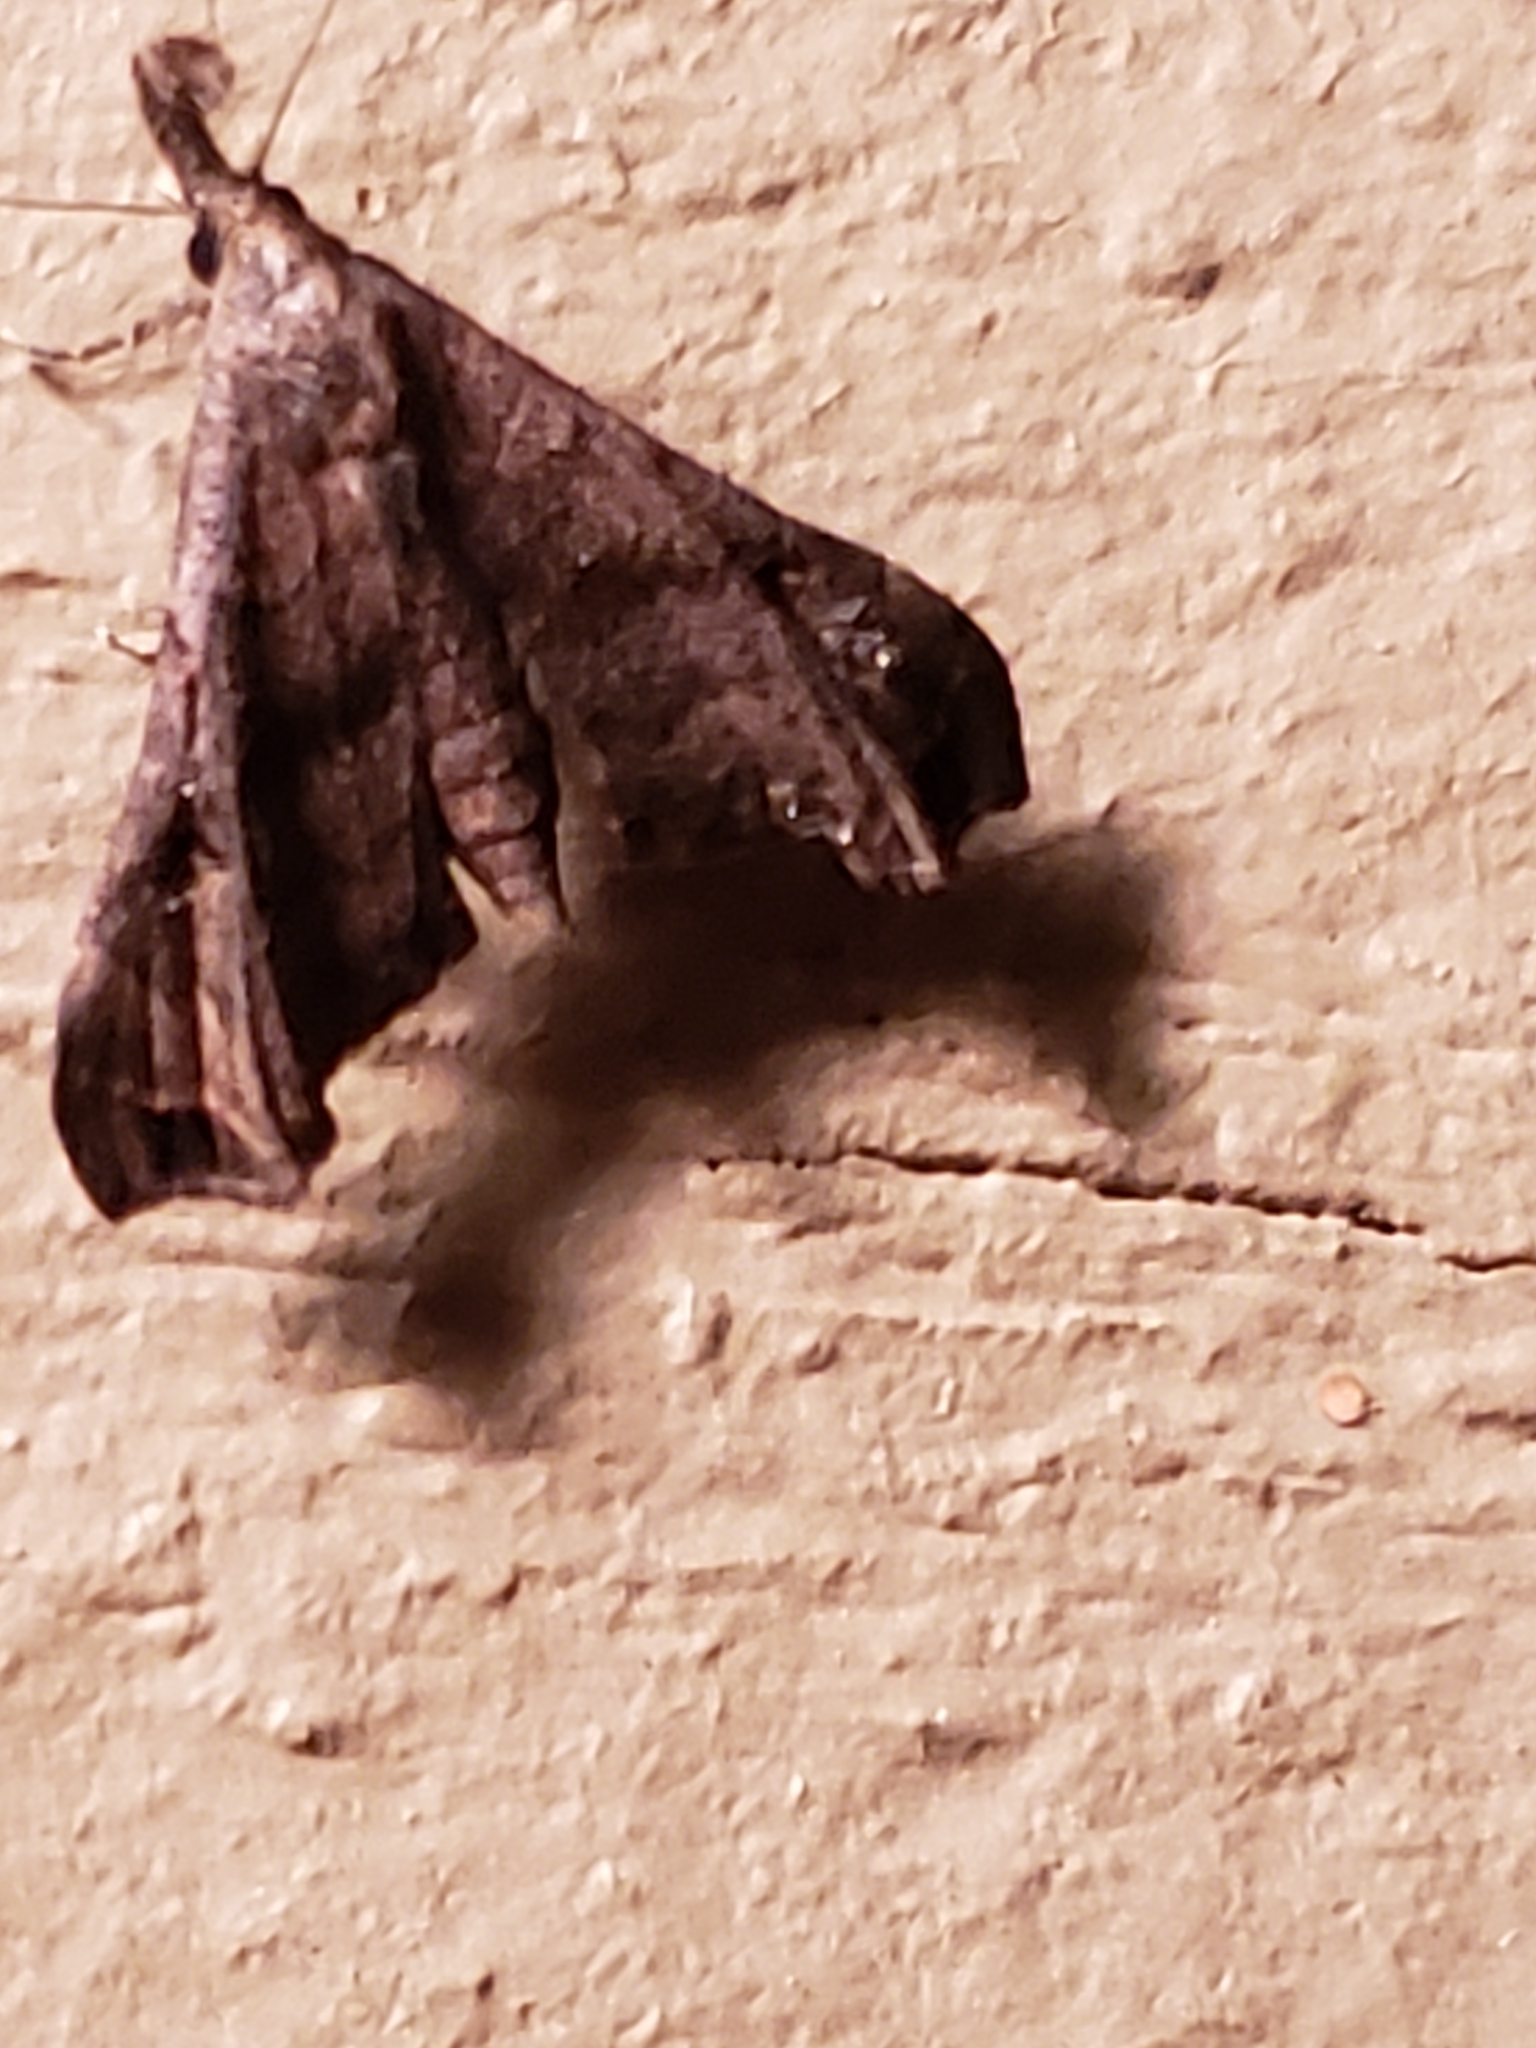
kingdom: Animalia
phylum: Arthropoda
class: Insecta
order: Lepidoptera
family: Erebidae
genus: Palthis
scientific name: Palthis asopialis
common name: Faint-spotted palthis moth
